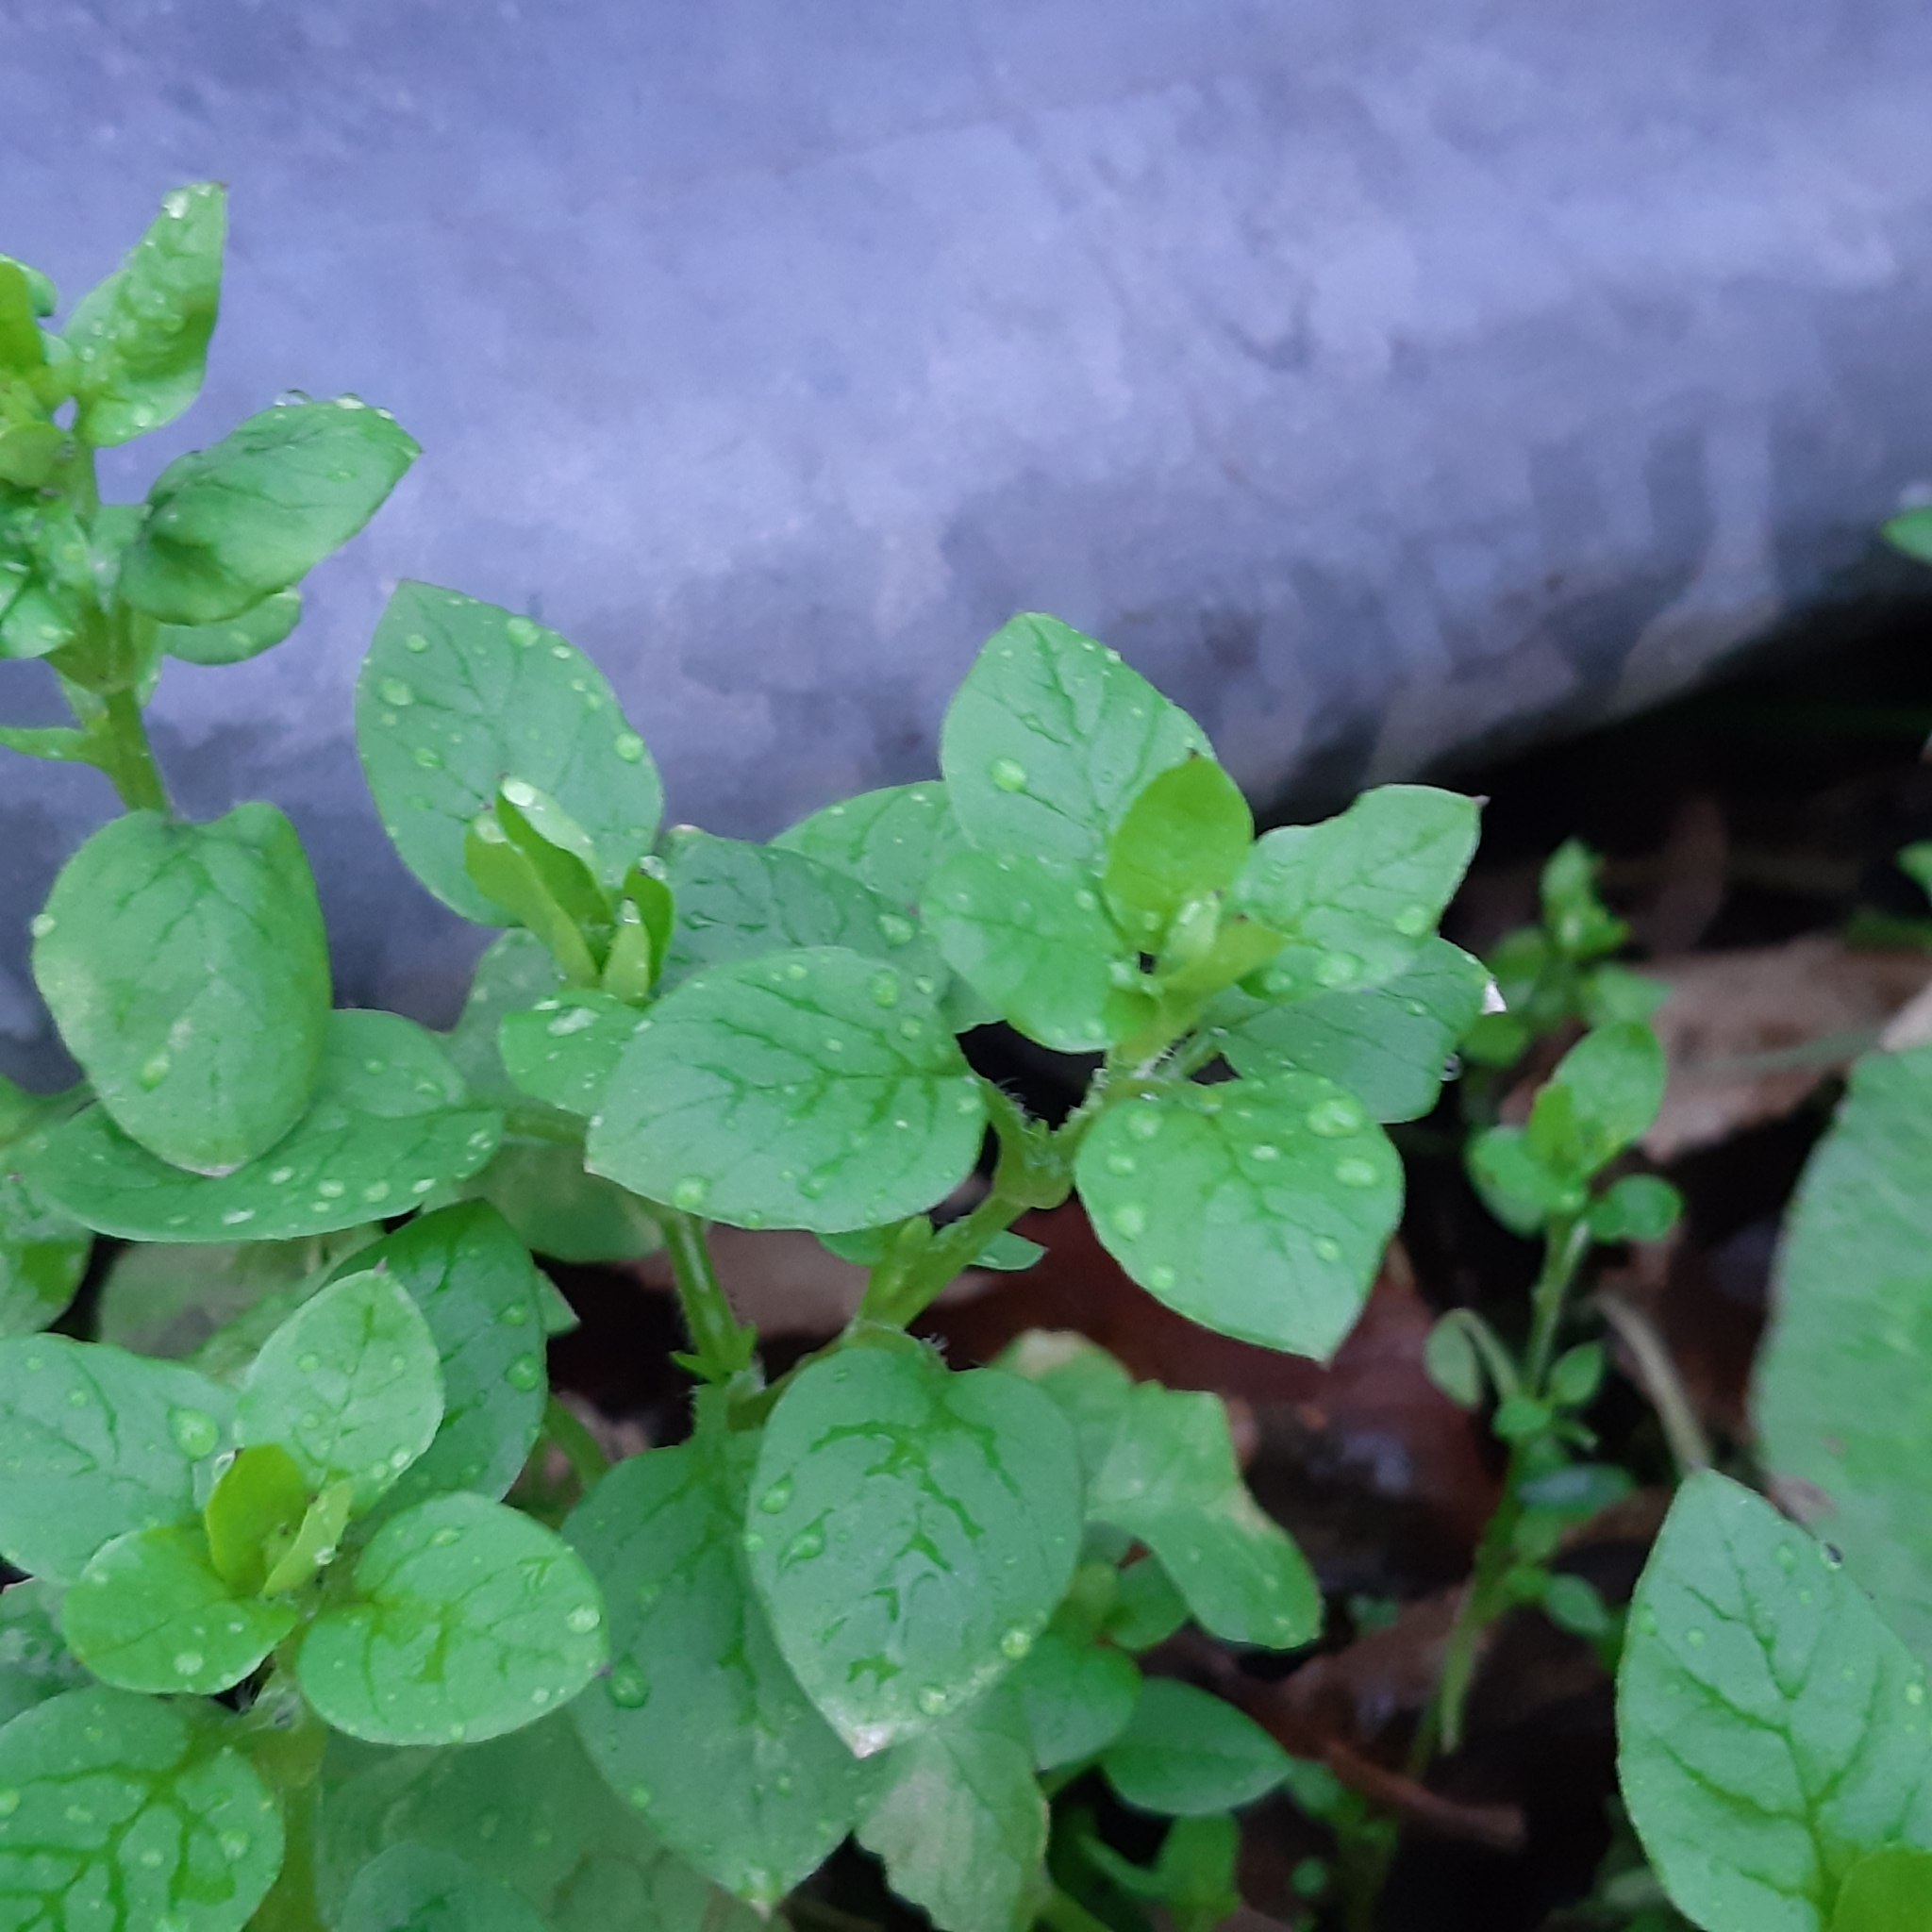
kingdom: Plantae
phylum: Tracheophyta
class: Magnoliopsida
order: Caryophyllales
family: Caryophyllaceae
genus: Stellaria
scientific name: Stellaria media
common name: Common chickweed
